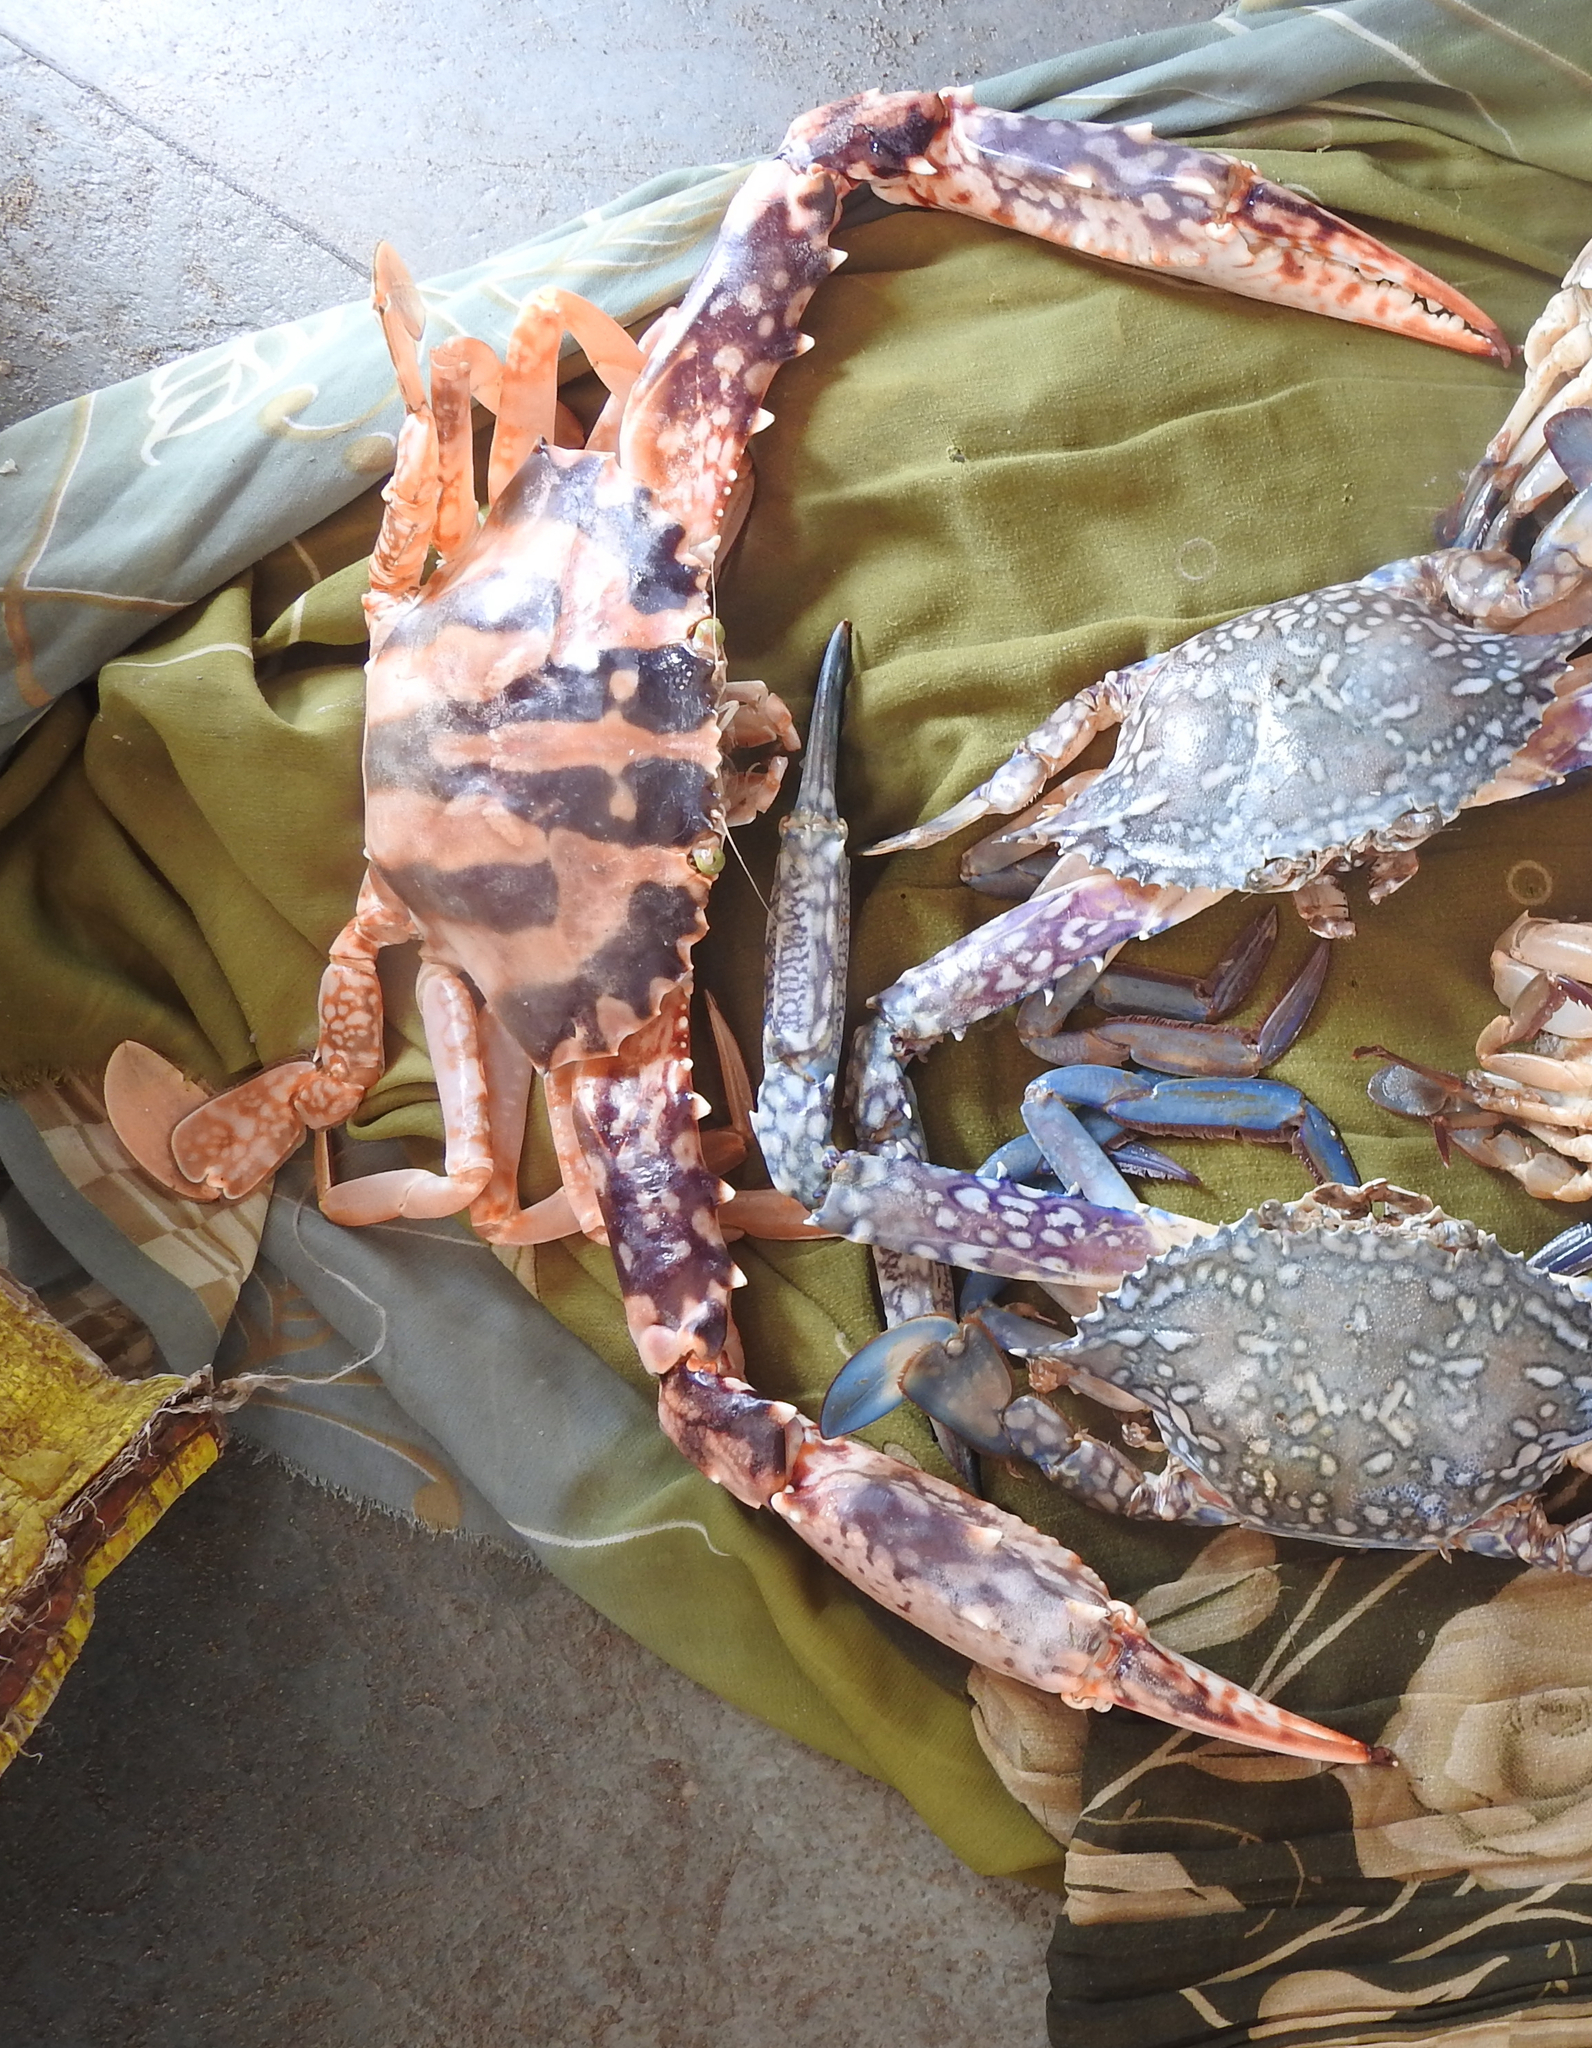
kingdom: Animalia
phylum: Arthropoda
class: Malacostraca
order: Decapoda
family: Portunidae
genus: Charybdis
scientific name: Charybdis feriata
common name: Striped swimming crab
